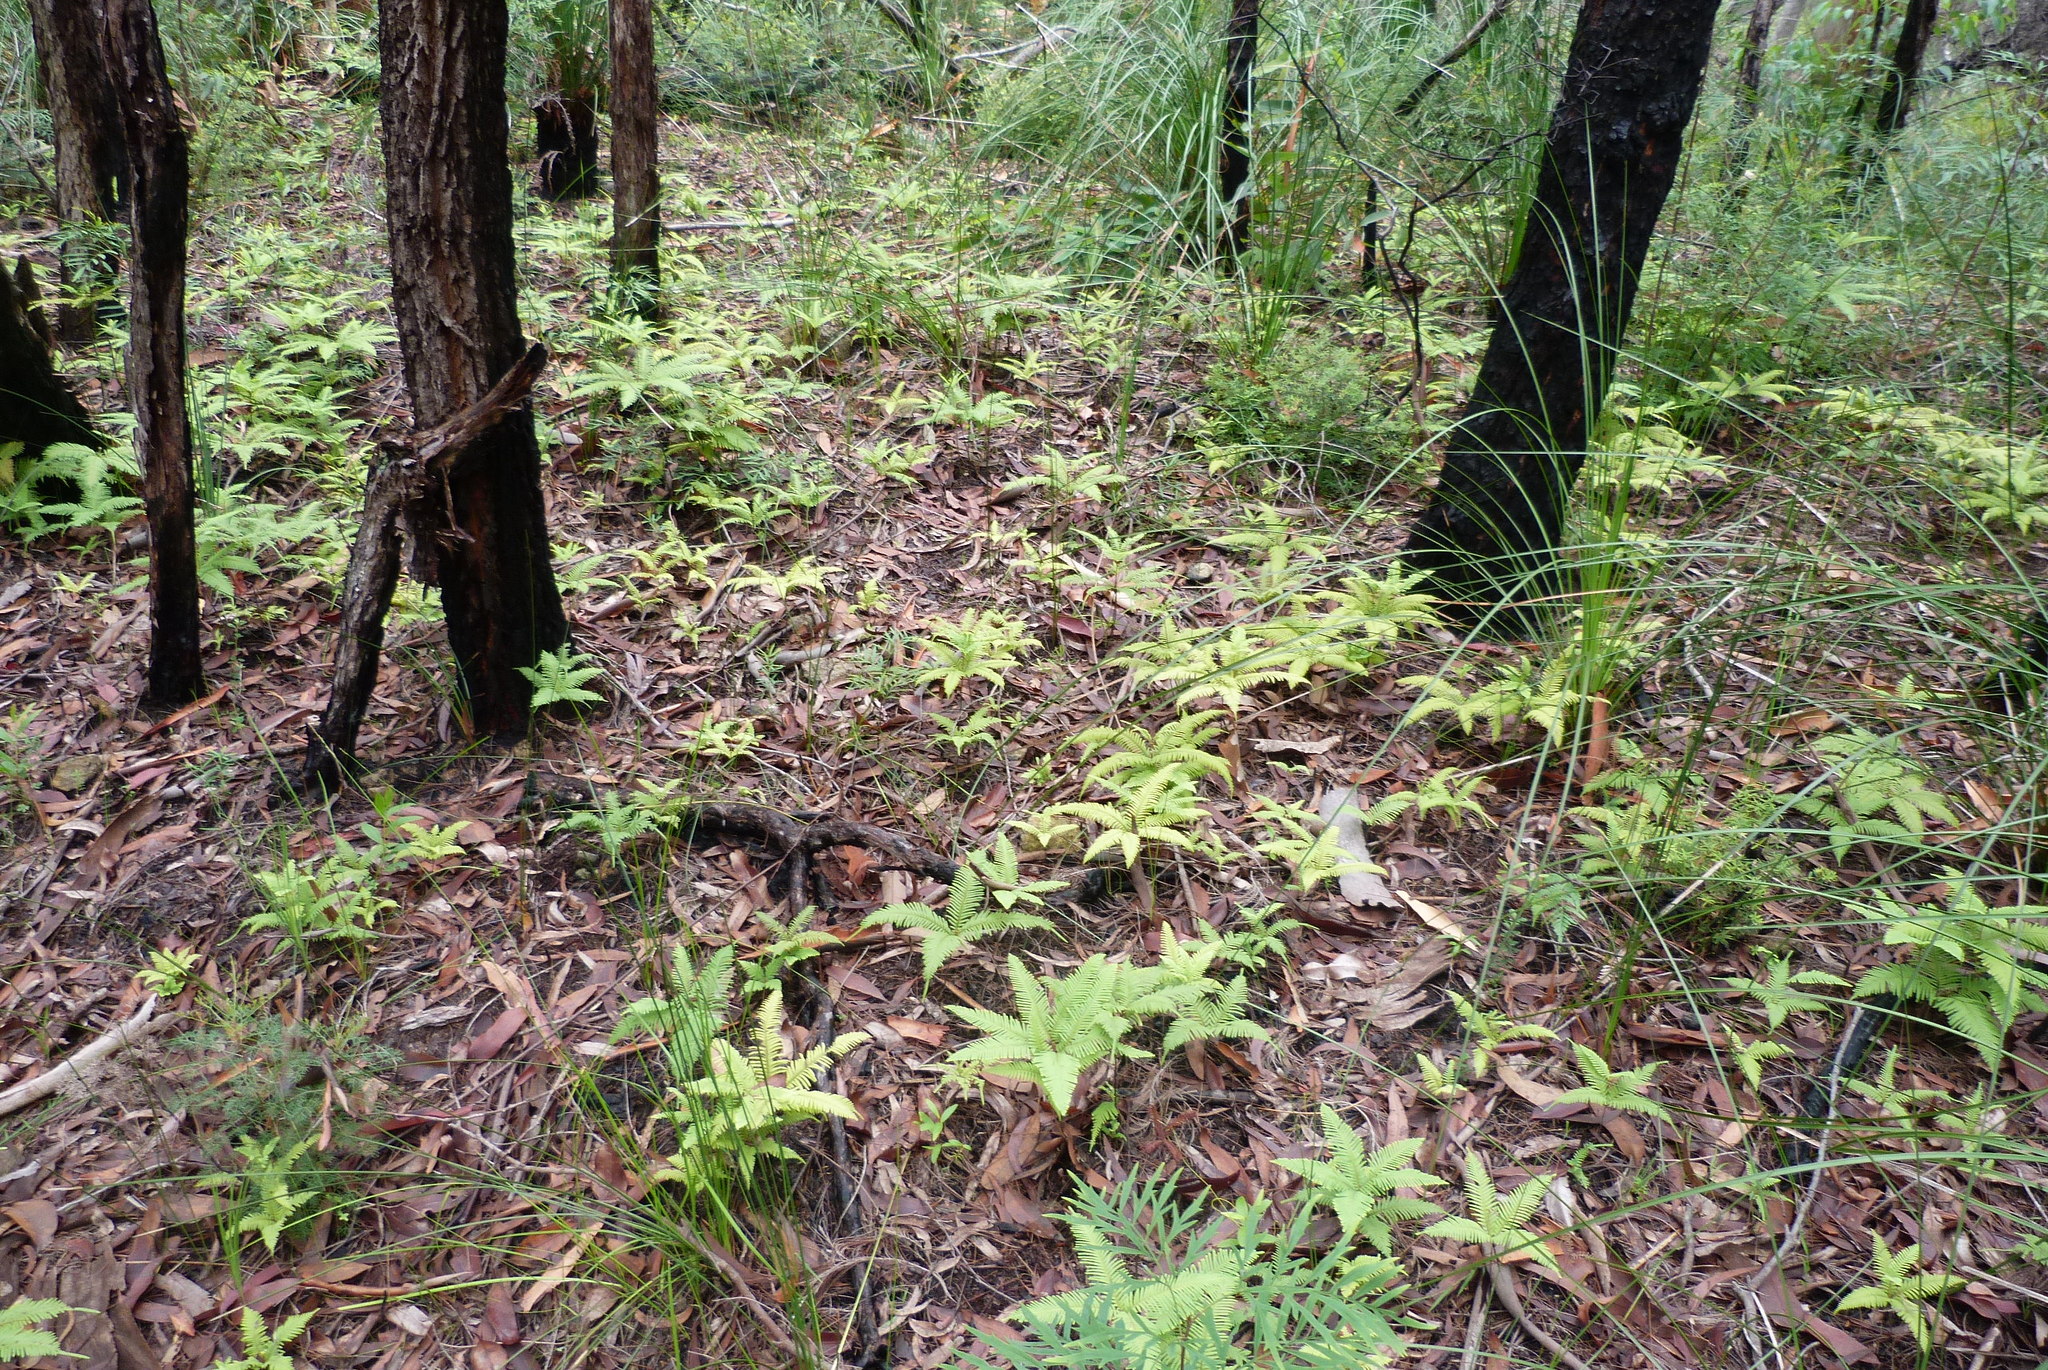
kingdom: Plantae
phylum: Tracheophyta
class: Polypodiopsida
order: Gleicheniales
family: Gleicheniaceae
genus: Sticherus
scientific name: Sticherus flabellatus
